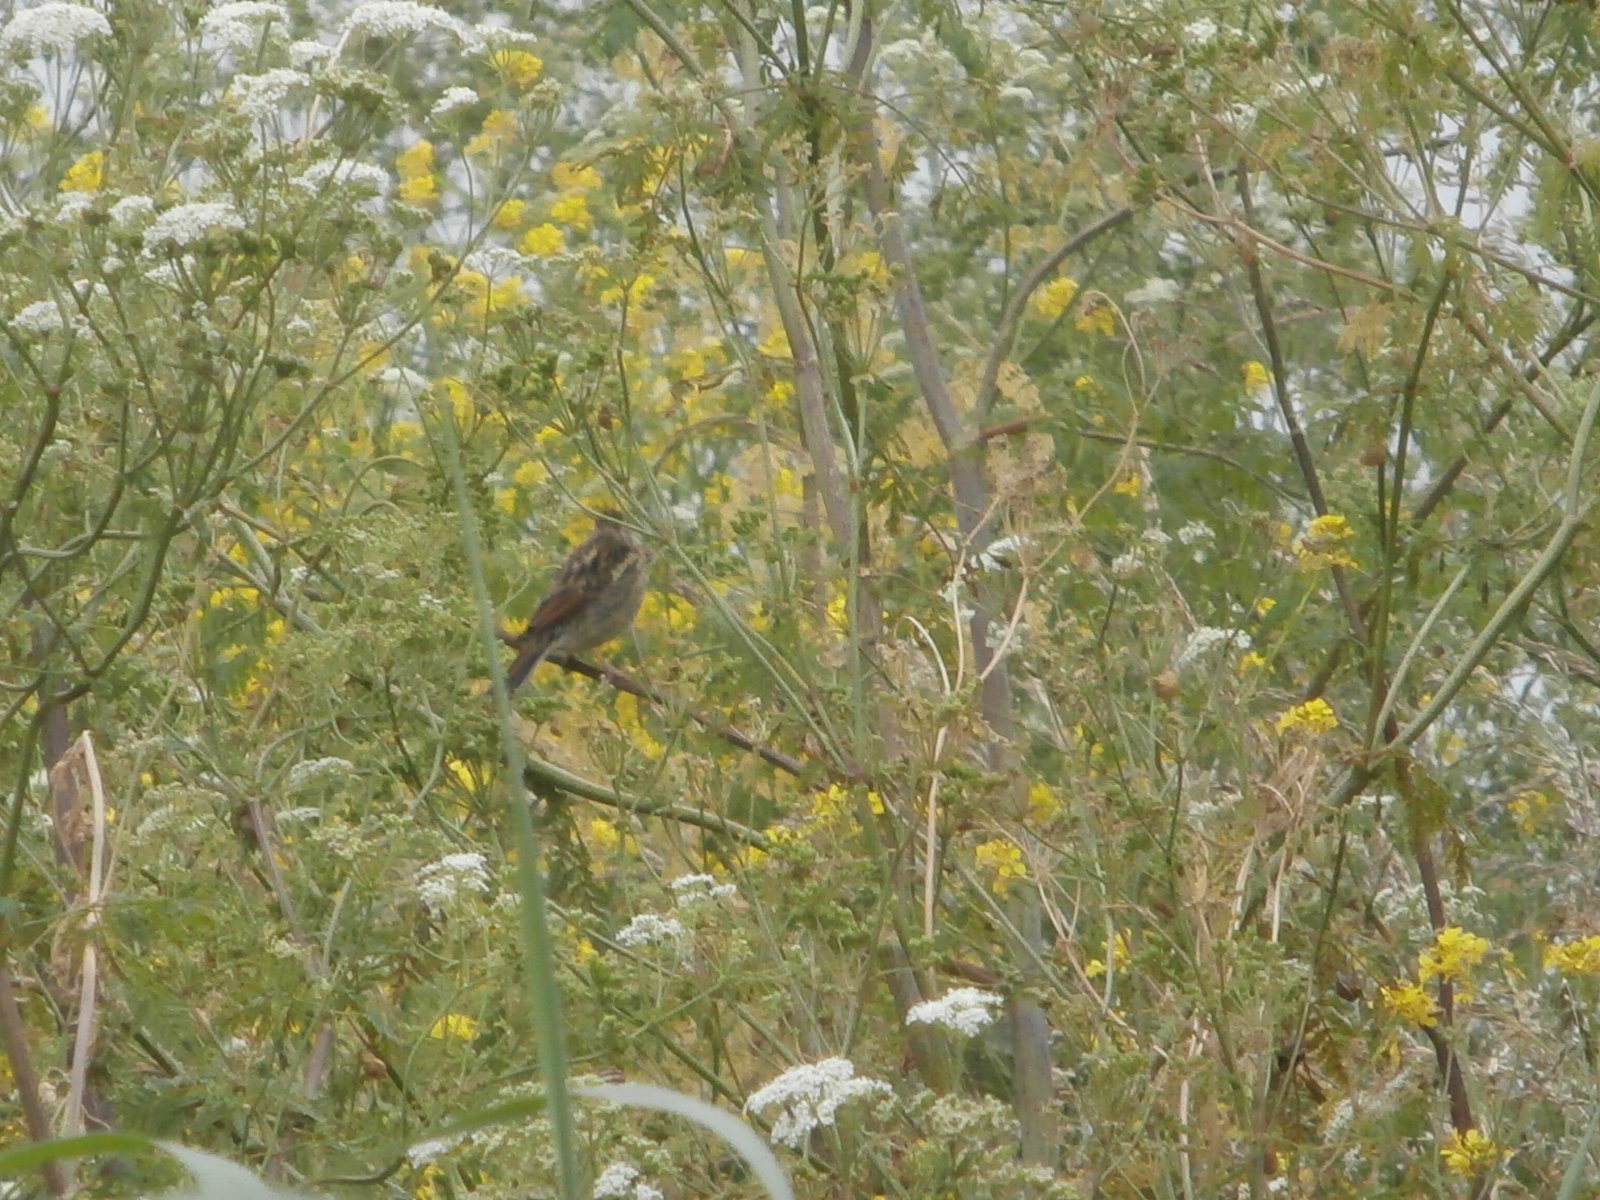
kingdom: Animalia
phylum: Chordata
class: Aves
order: Passeriformes
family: Emberizidae
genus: Emberiza
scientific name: Emberiza schoeniclus
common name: Reed bunting
